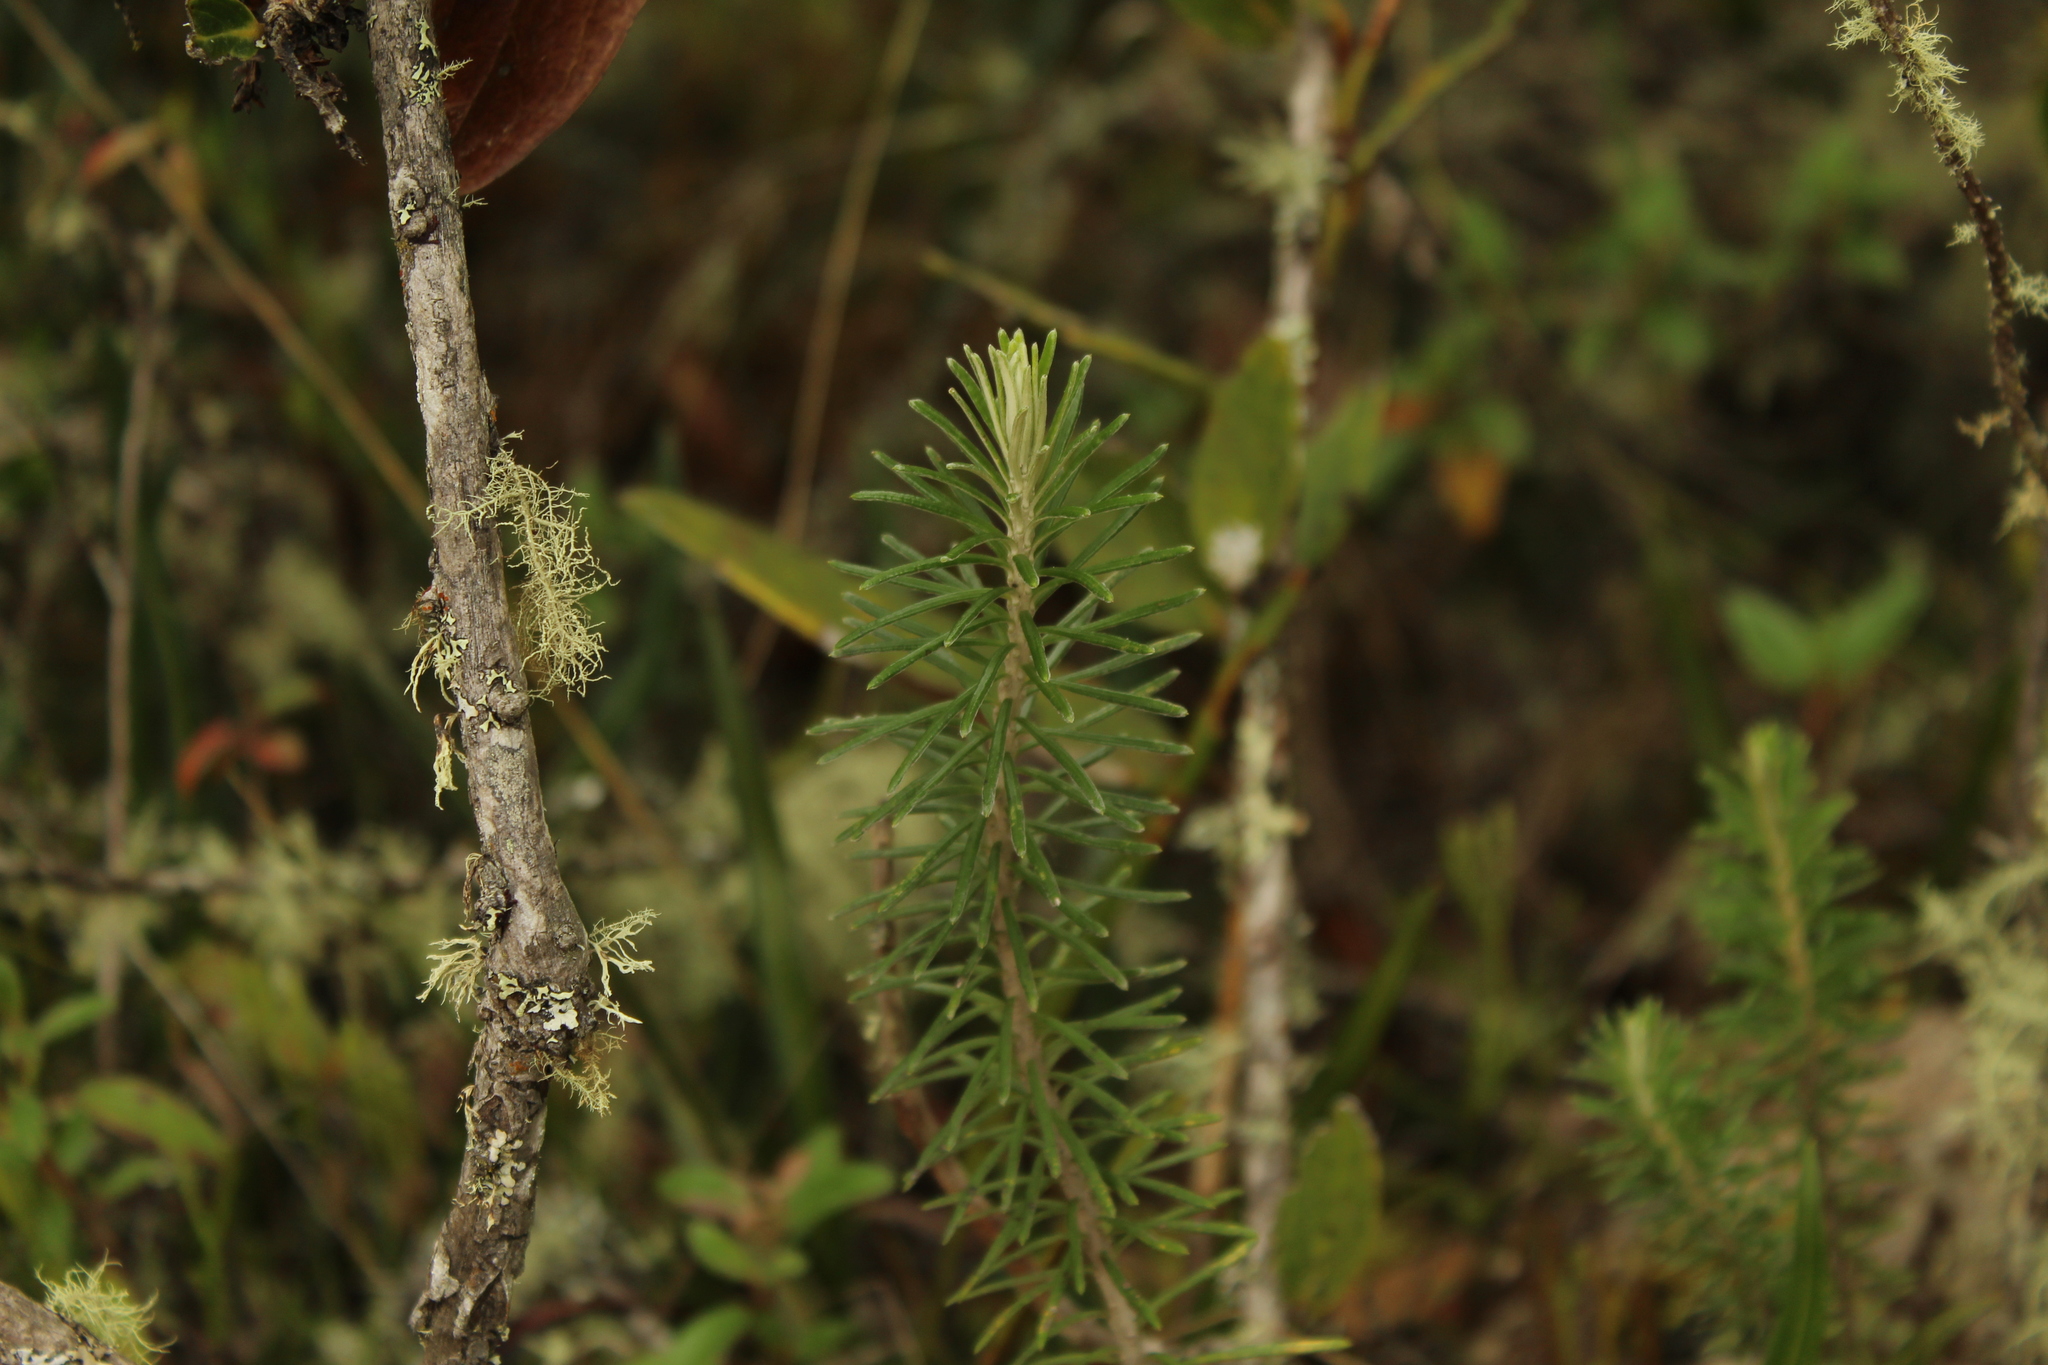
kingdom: Plantae
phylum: Tracheophyta
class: Magnoliopsida
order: Asterales
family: Asteraceae
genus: Linochilus
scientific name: Linochilus rosmarinifolius
